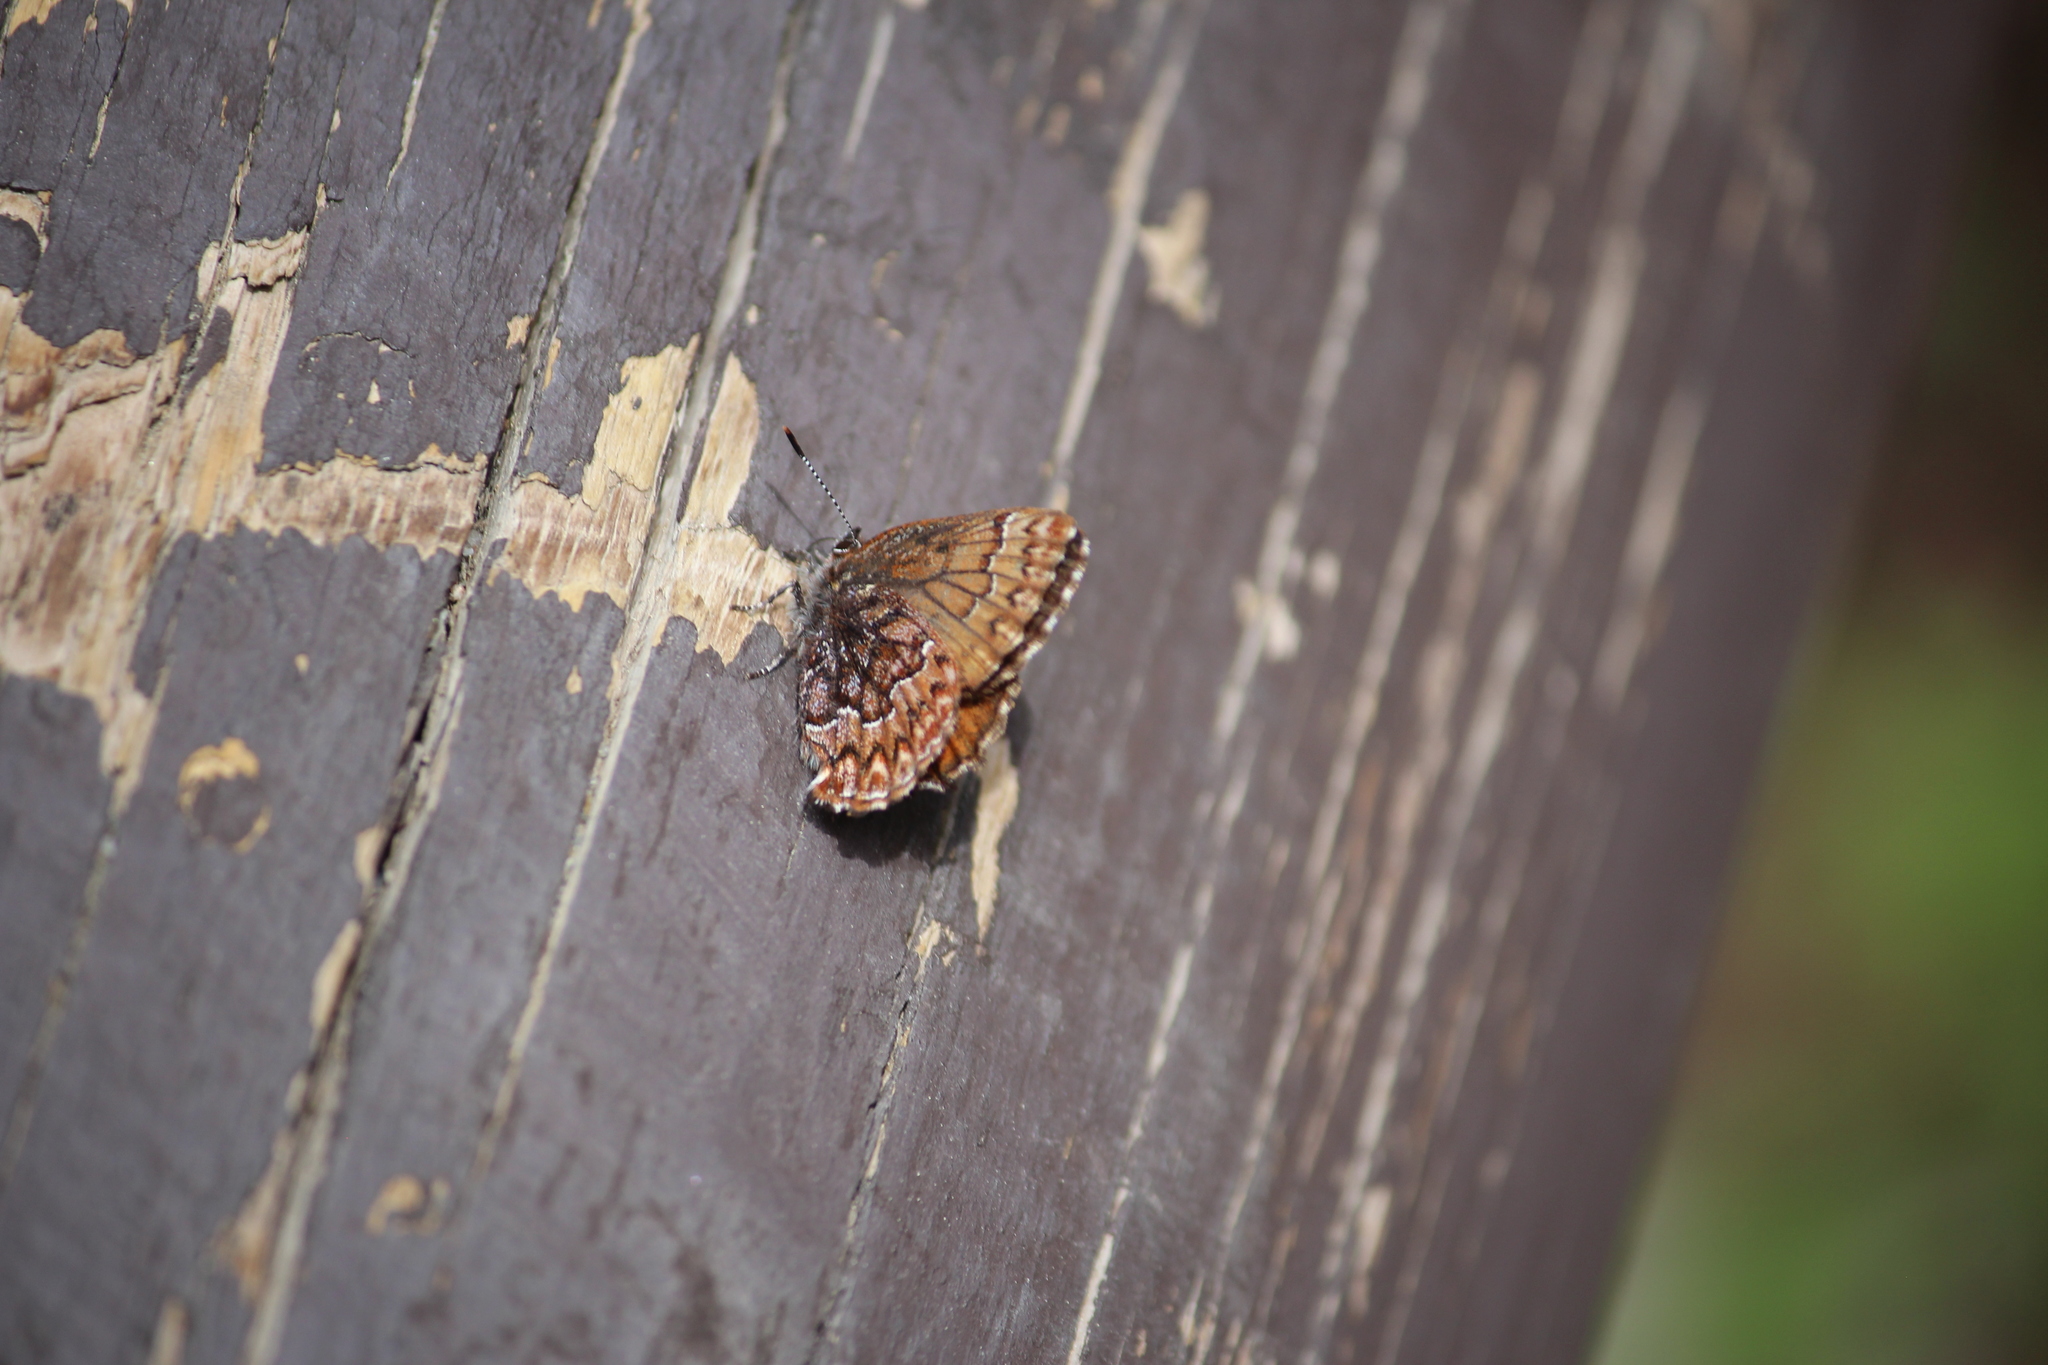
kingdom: Animalia
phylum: Arthropoda
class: Insecta
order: Lepidoptera
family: Lycaenidae
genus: Incisalia
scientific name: Incisalia eryphon
